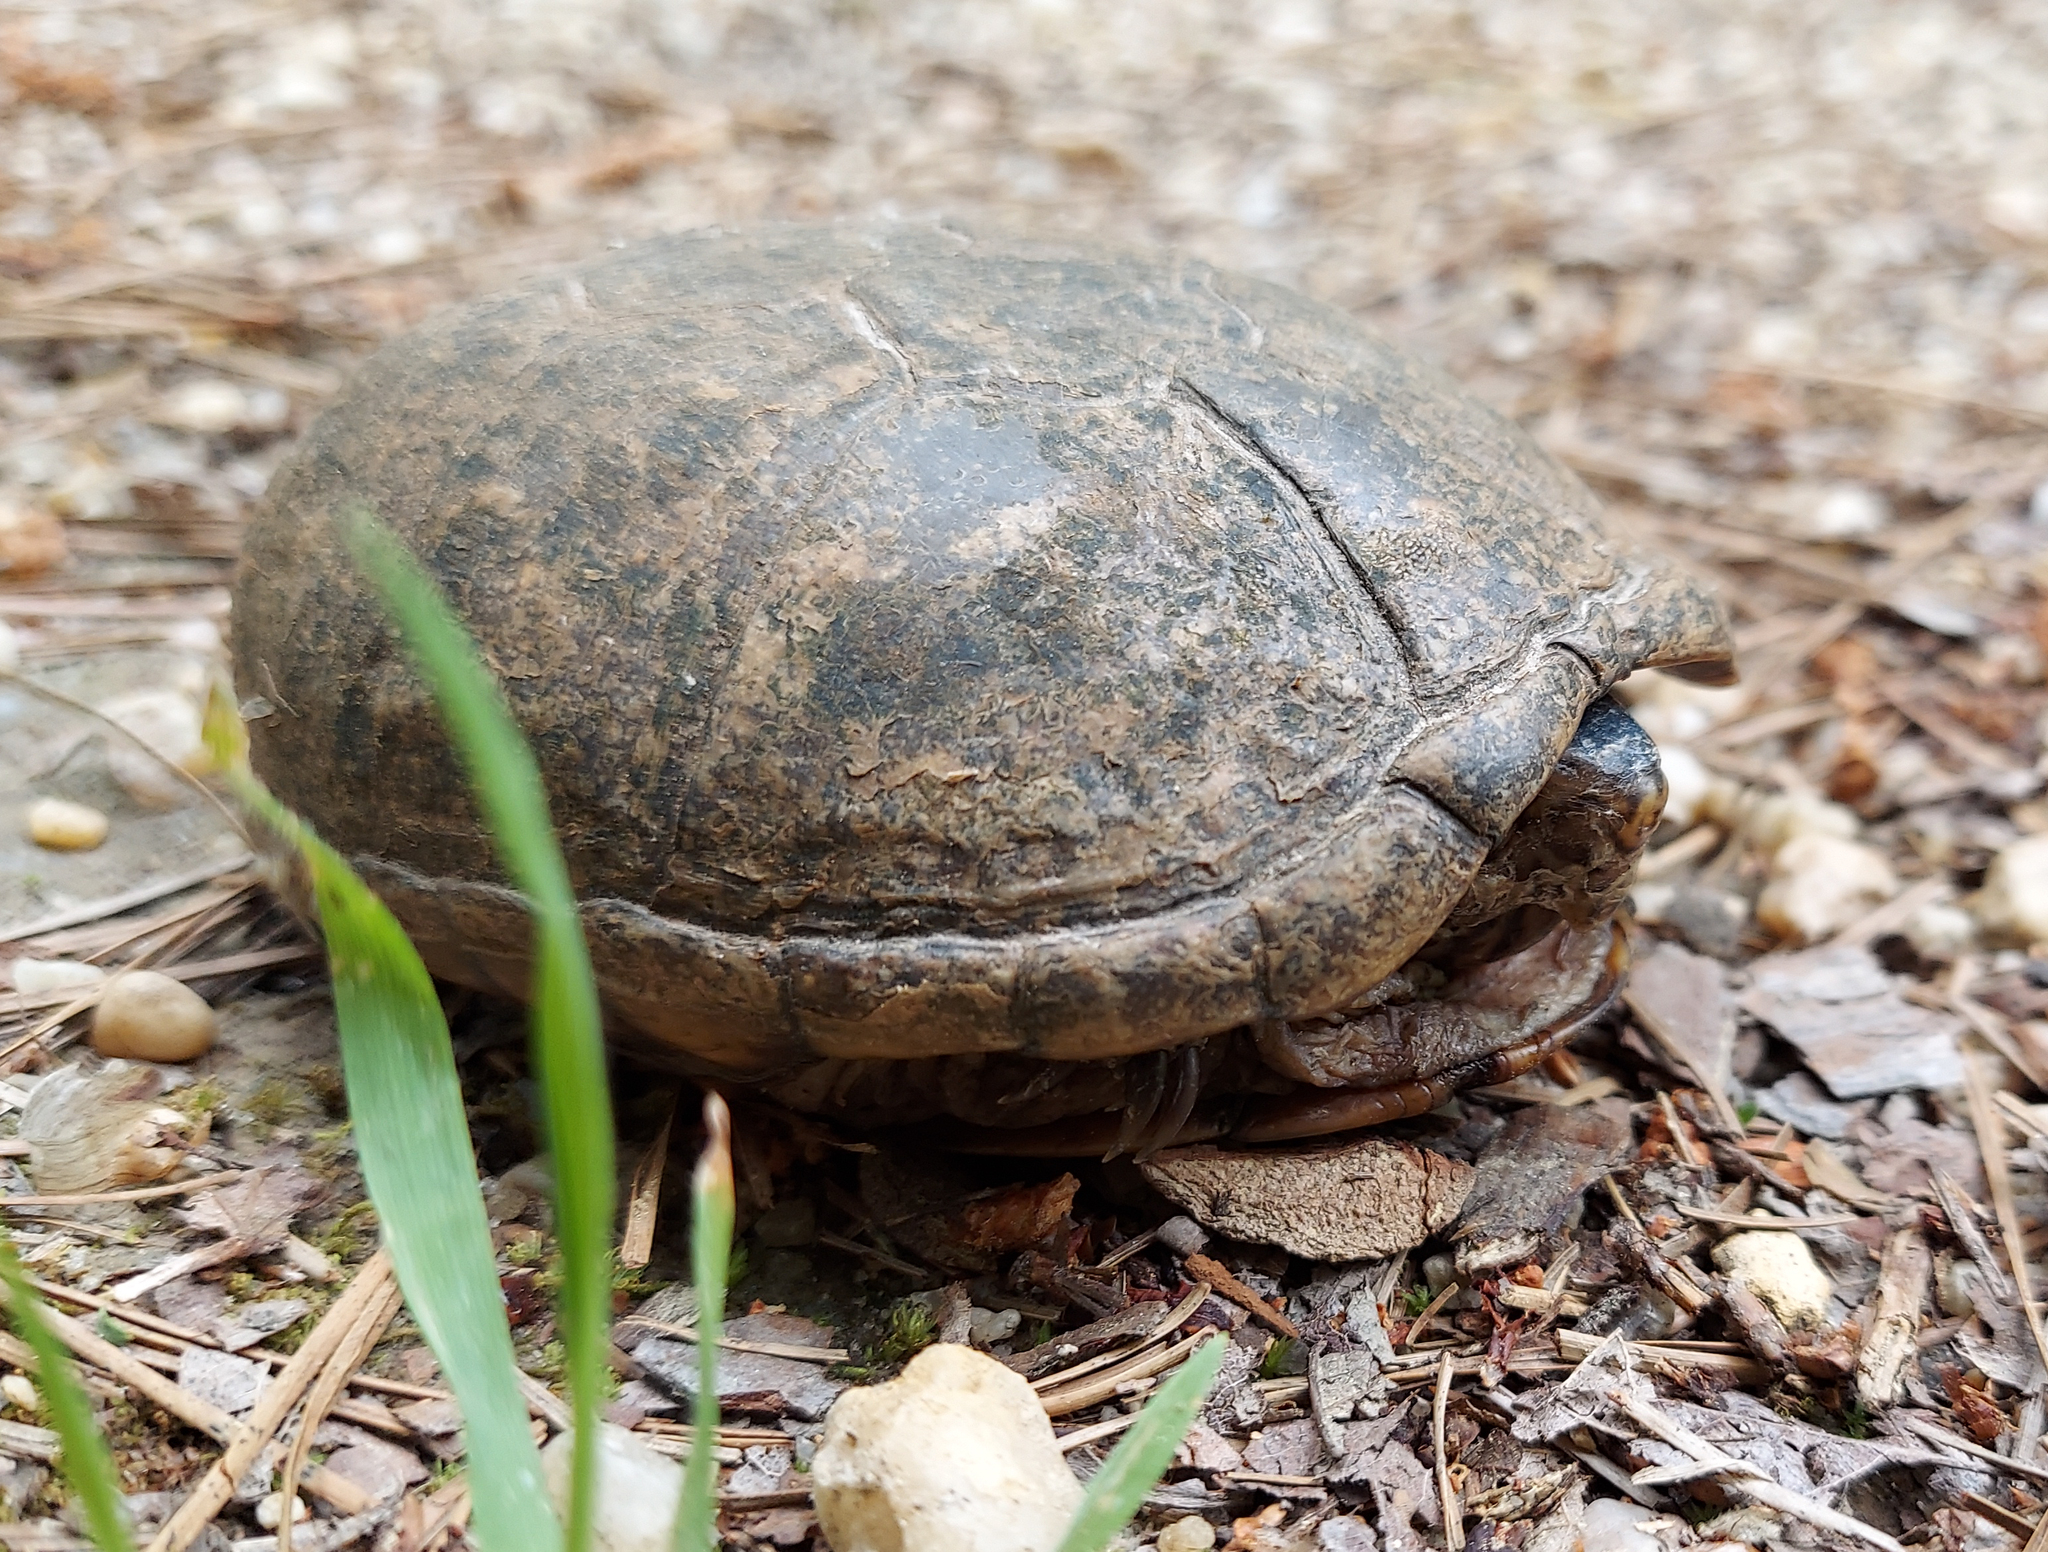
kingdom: Animalia
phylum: Chordata
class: Testudines
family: Kinosternidae
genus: Kinosternon
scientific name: Kinosternon subrubrum
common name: Eastern mud turtle
